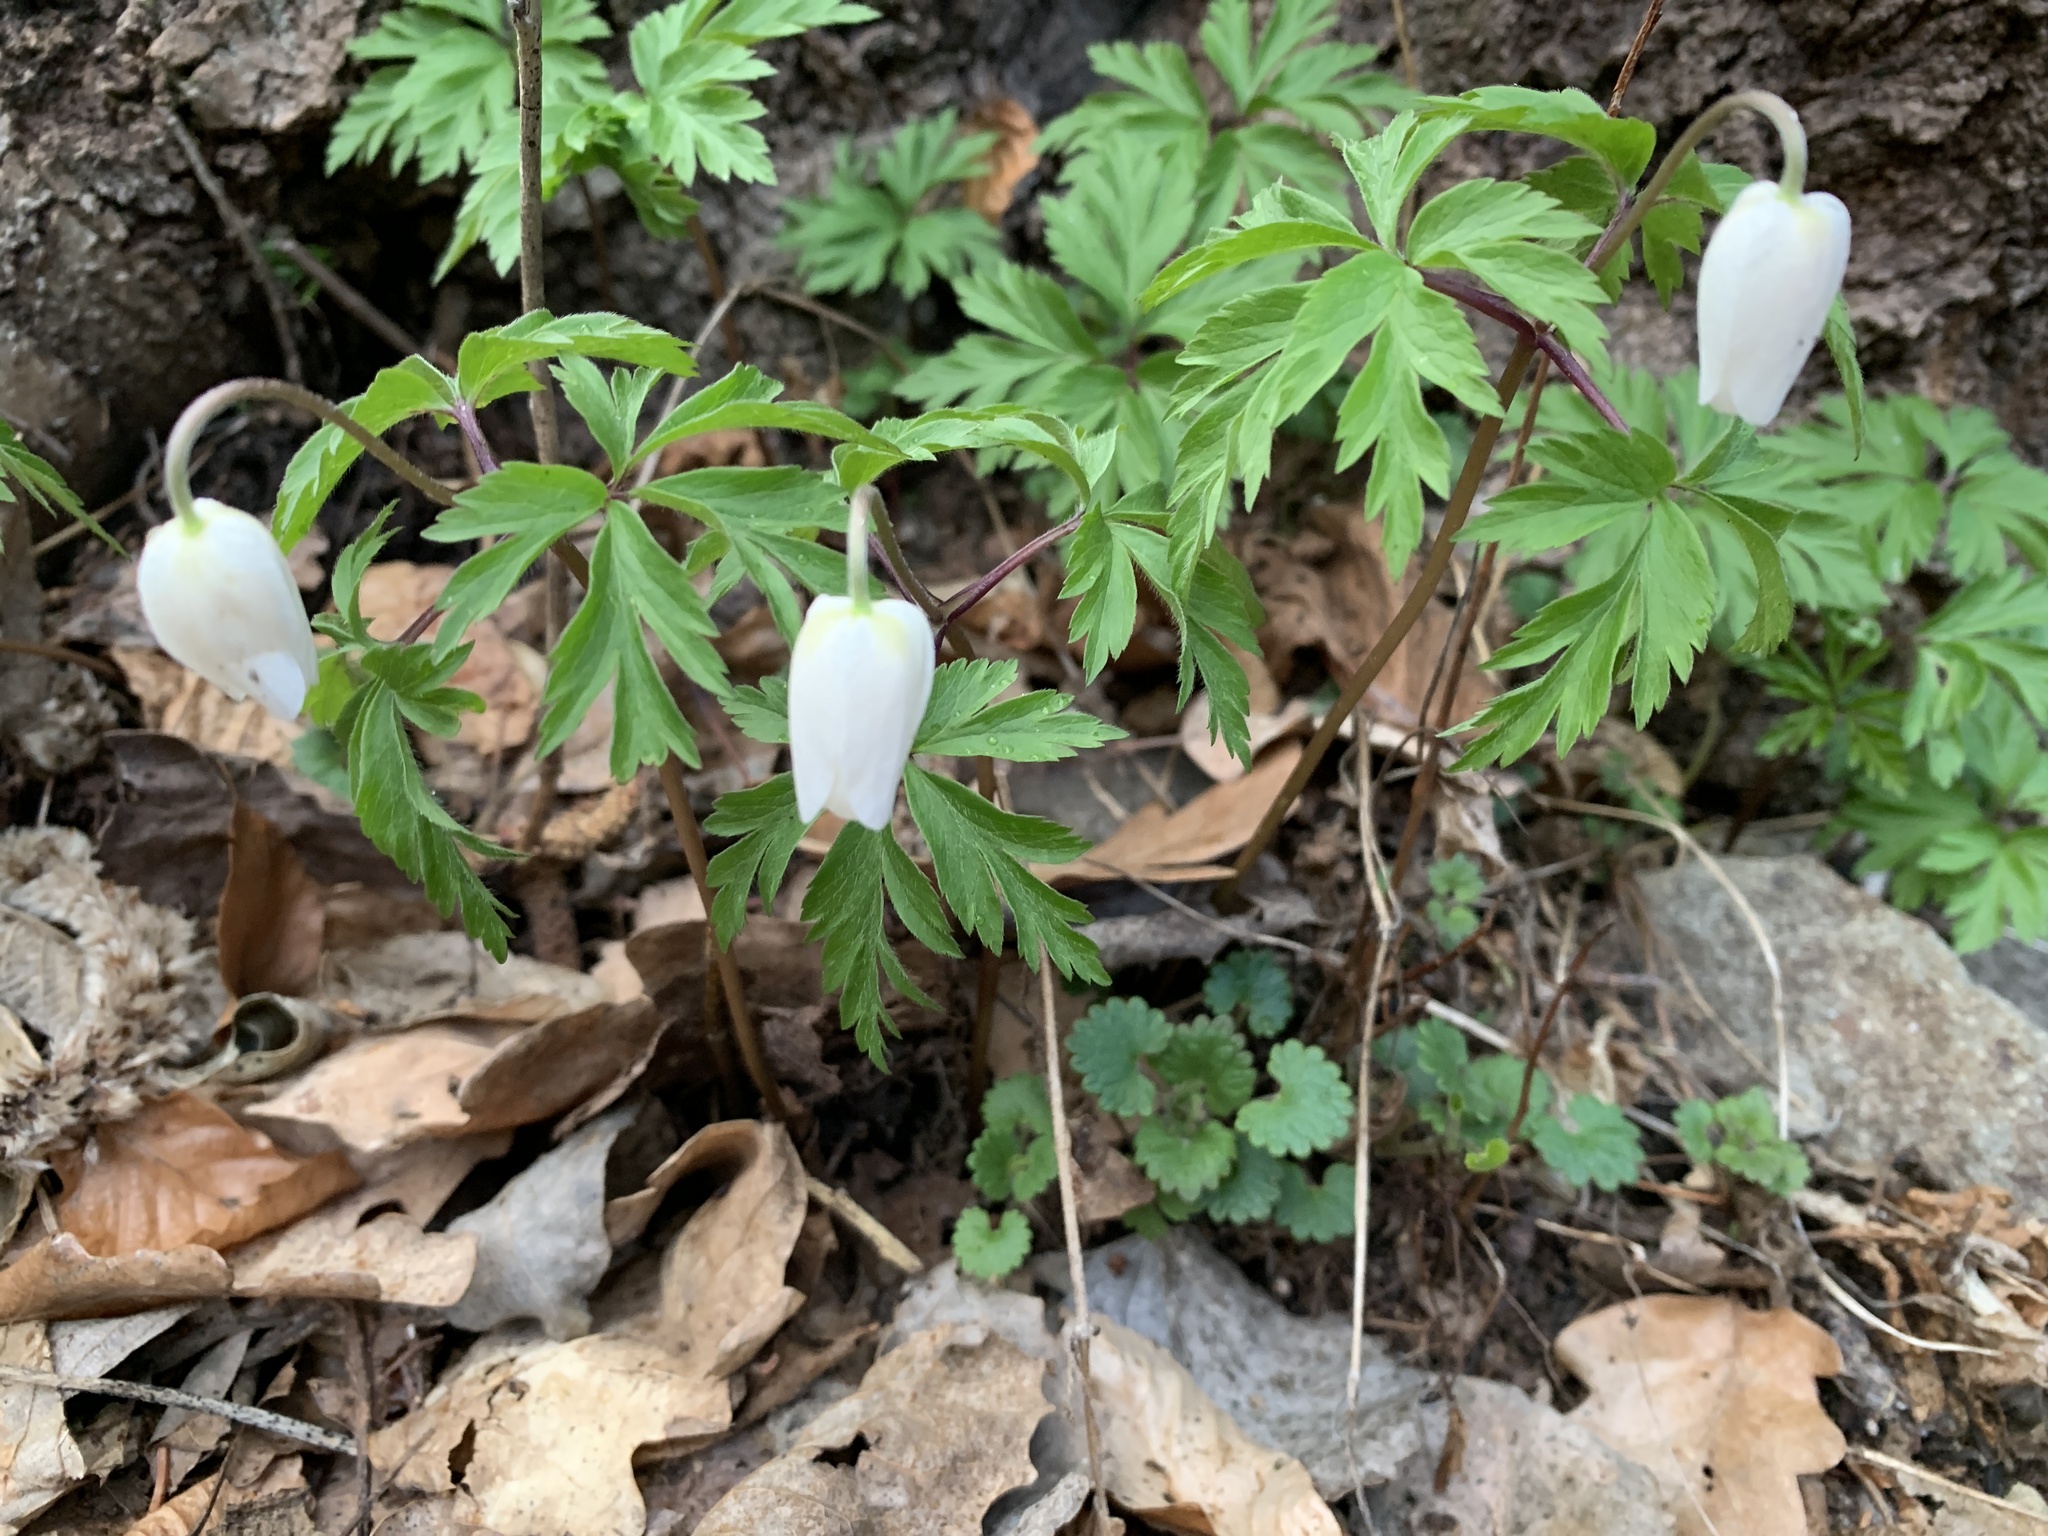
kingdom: Plantae
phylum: Tracheophyta
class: Magnoliopsida
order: Ranunculales
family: Ranunculaceae
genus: Anemone
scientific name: Anemone nemorosa
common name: Wood anemone
